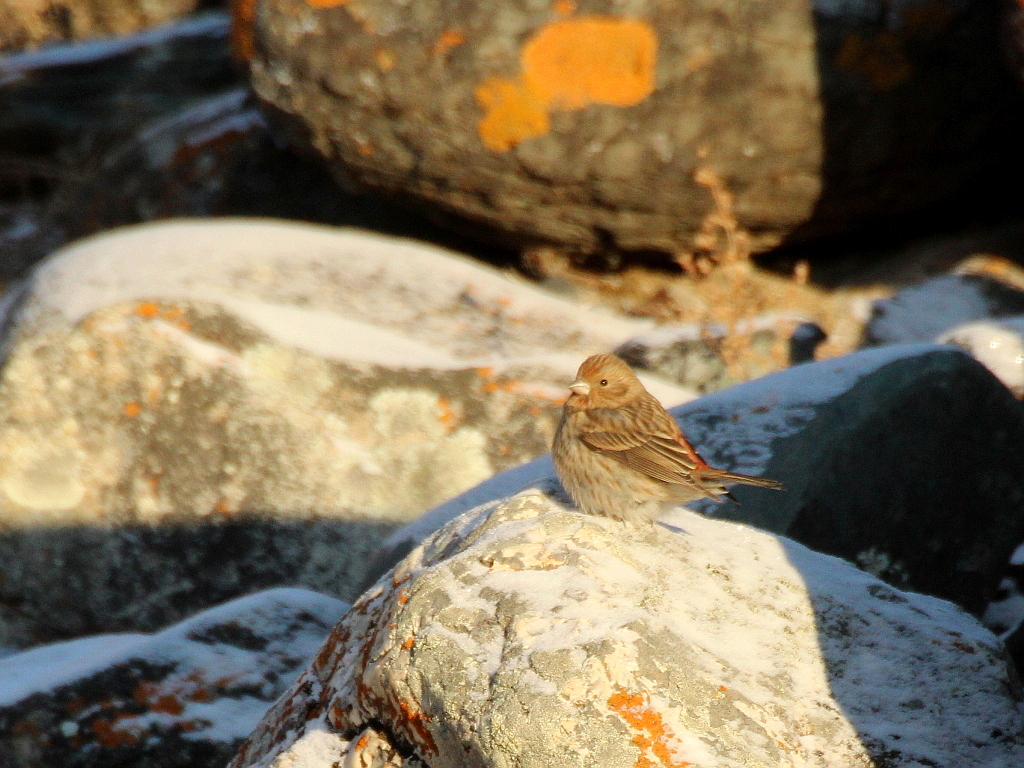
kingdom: Animalia
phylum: Chordata
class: Aves
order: Passeriformes
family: Fringillidae
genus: Carpodacus
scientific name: Carpodacus roseus
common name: Pallas's rosefinch
